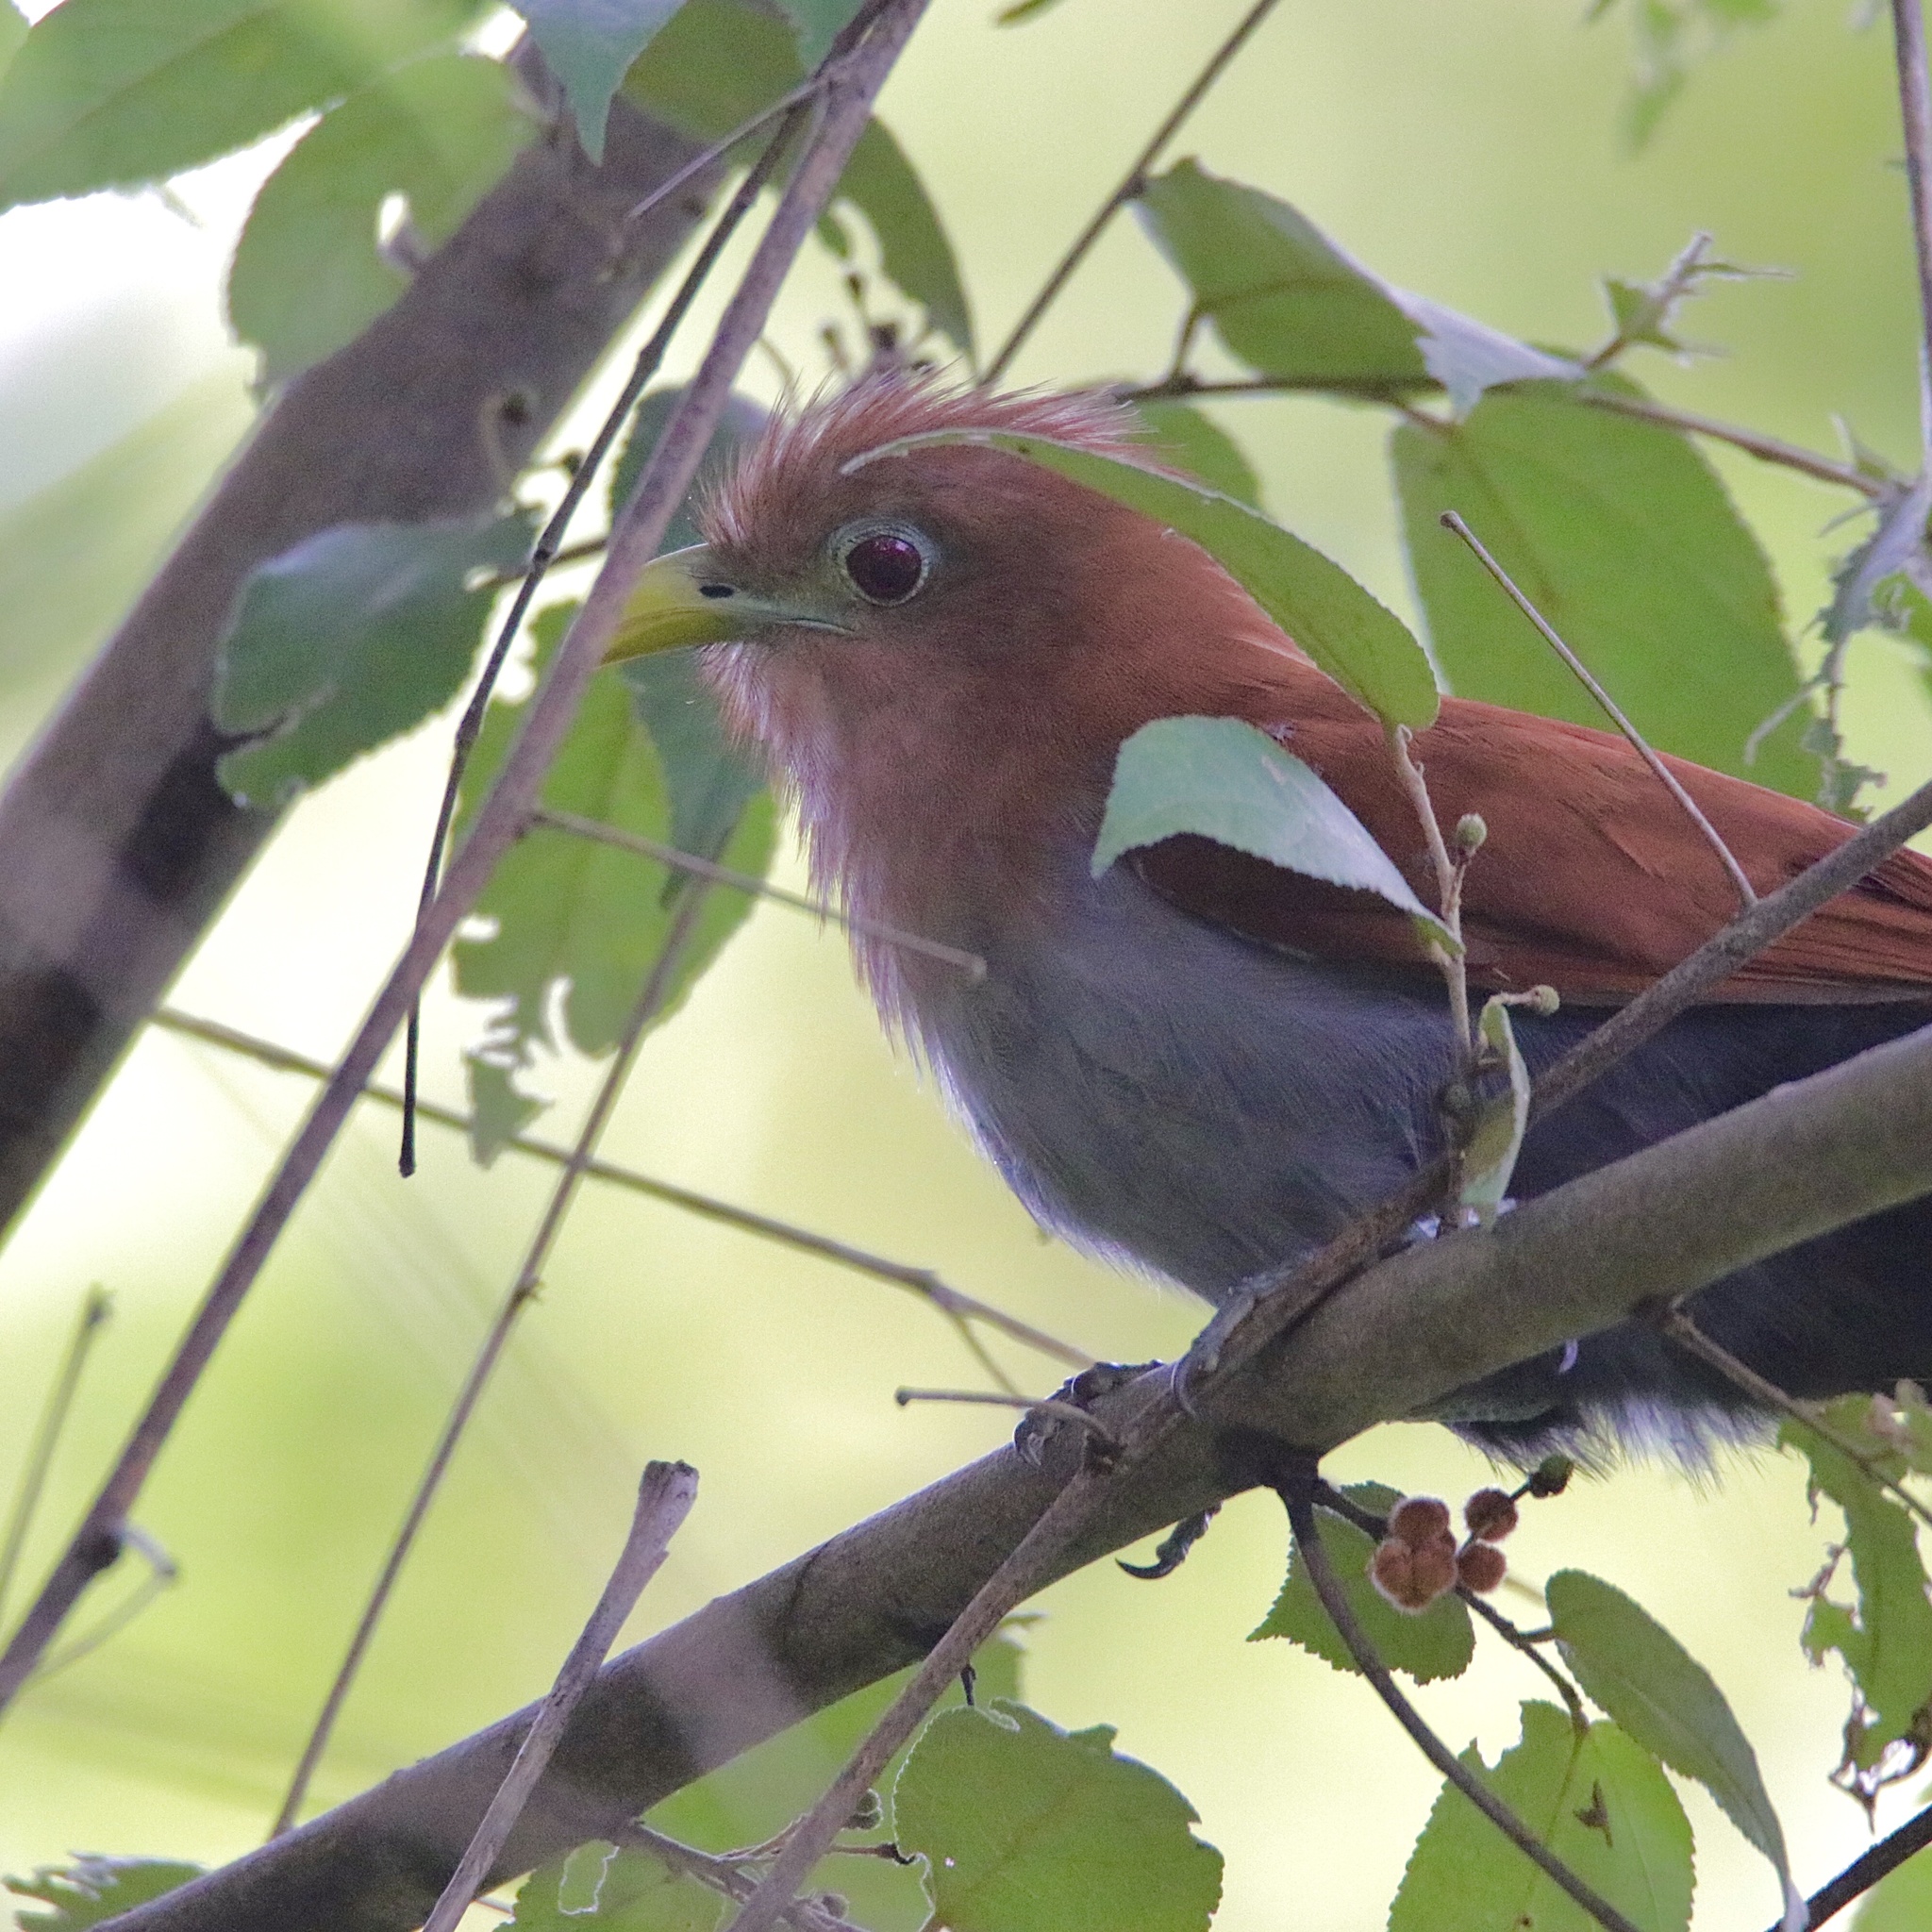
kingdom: Animalia
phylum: Chordata
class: Aves
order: Cuculiformes
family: Cuculidae
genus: Piaya
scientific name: Piaya cayana
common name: Squirrel cuckoo
